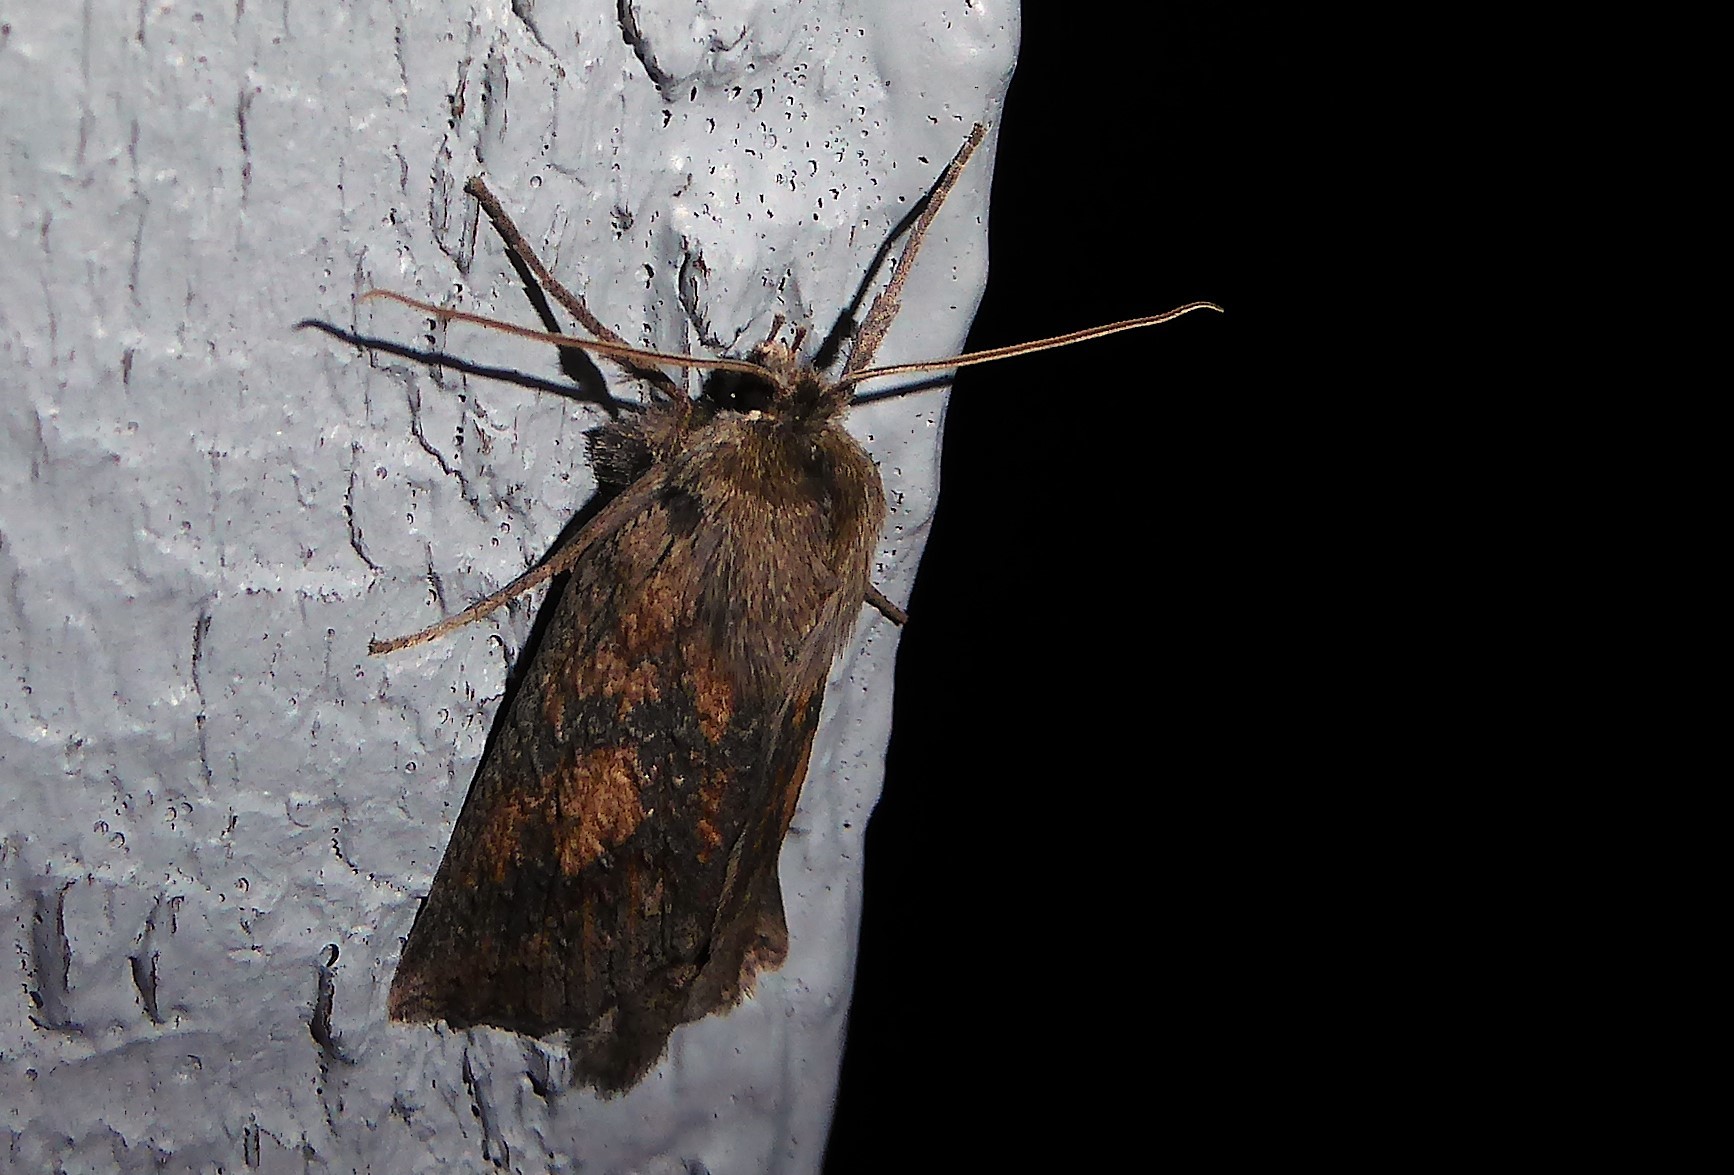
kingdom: Animalia
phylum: Arthropoda
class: Insecta
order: Lepidoptera
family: Geometridae
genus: Declana
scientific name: Declana leptomera
